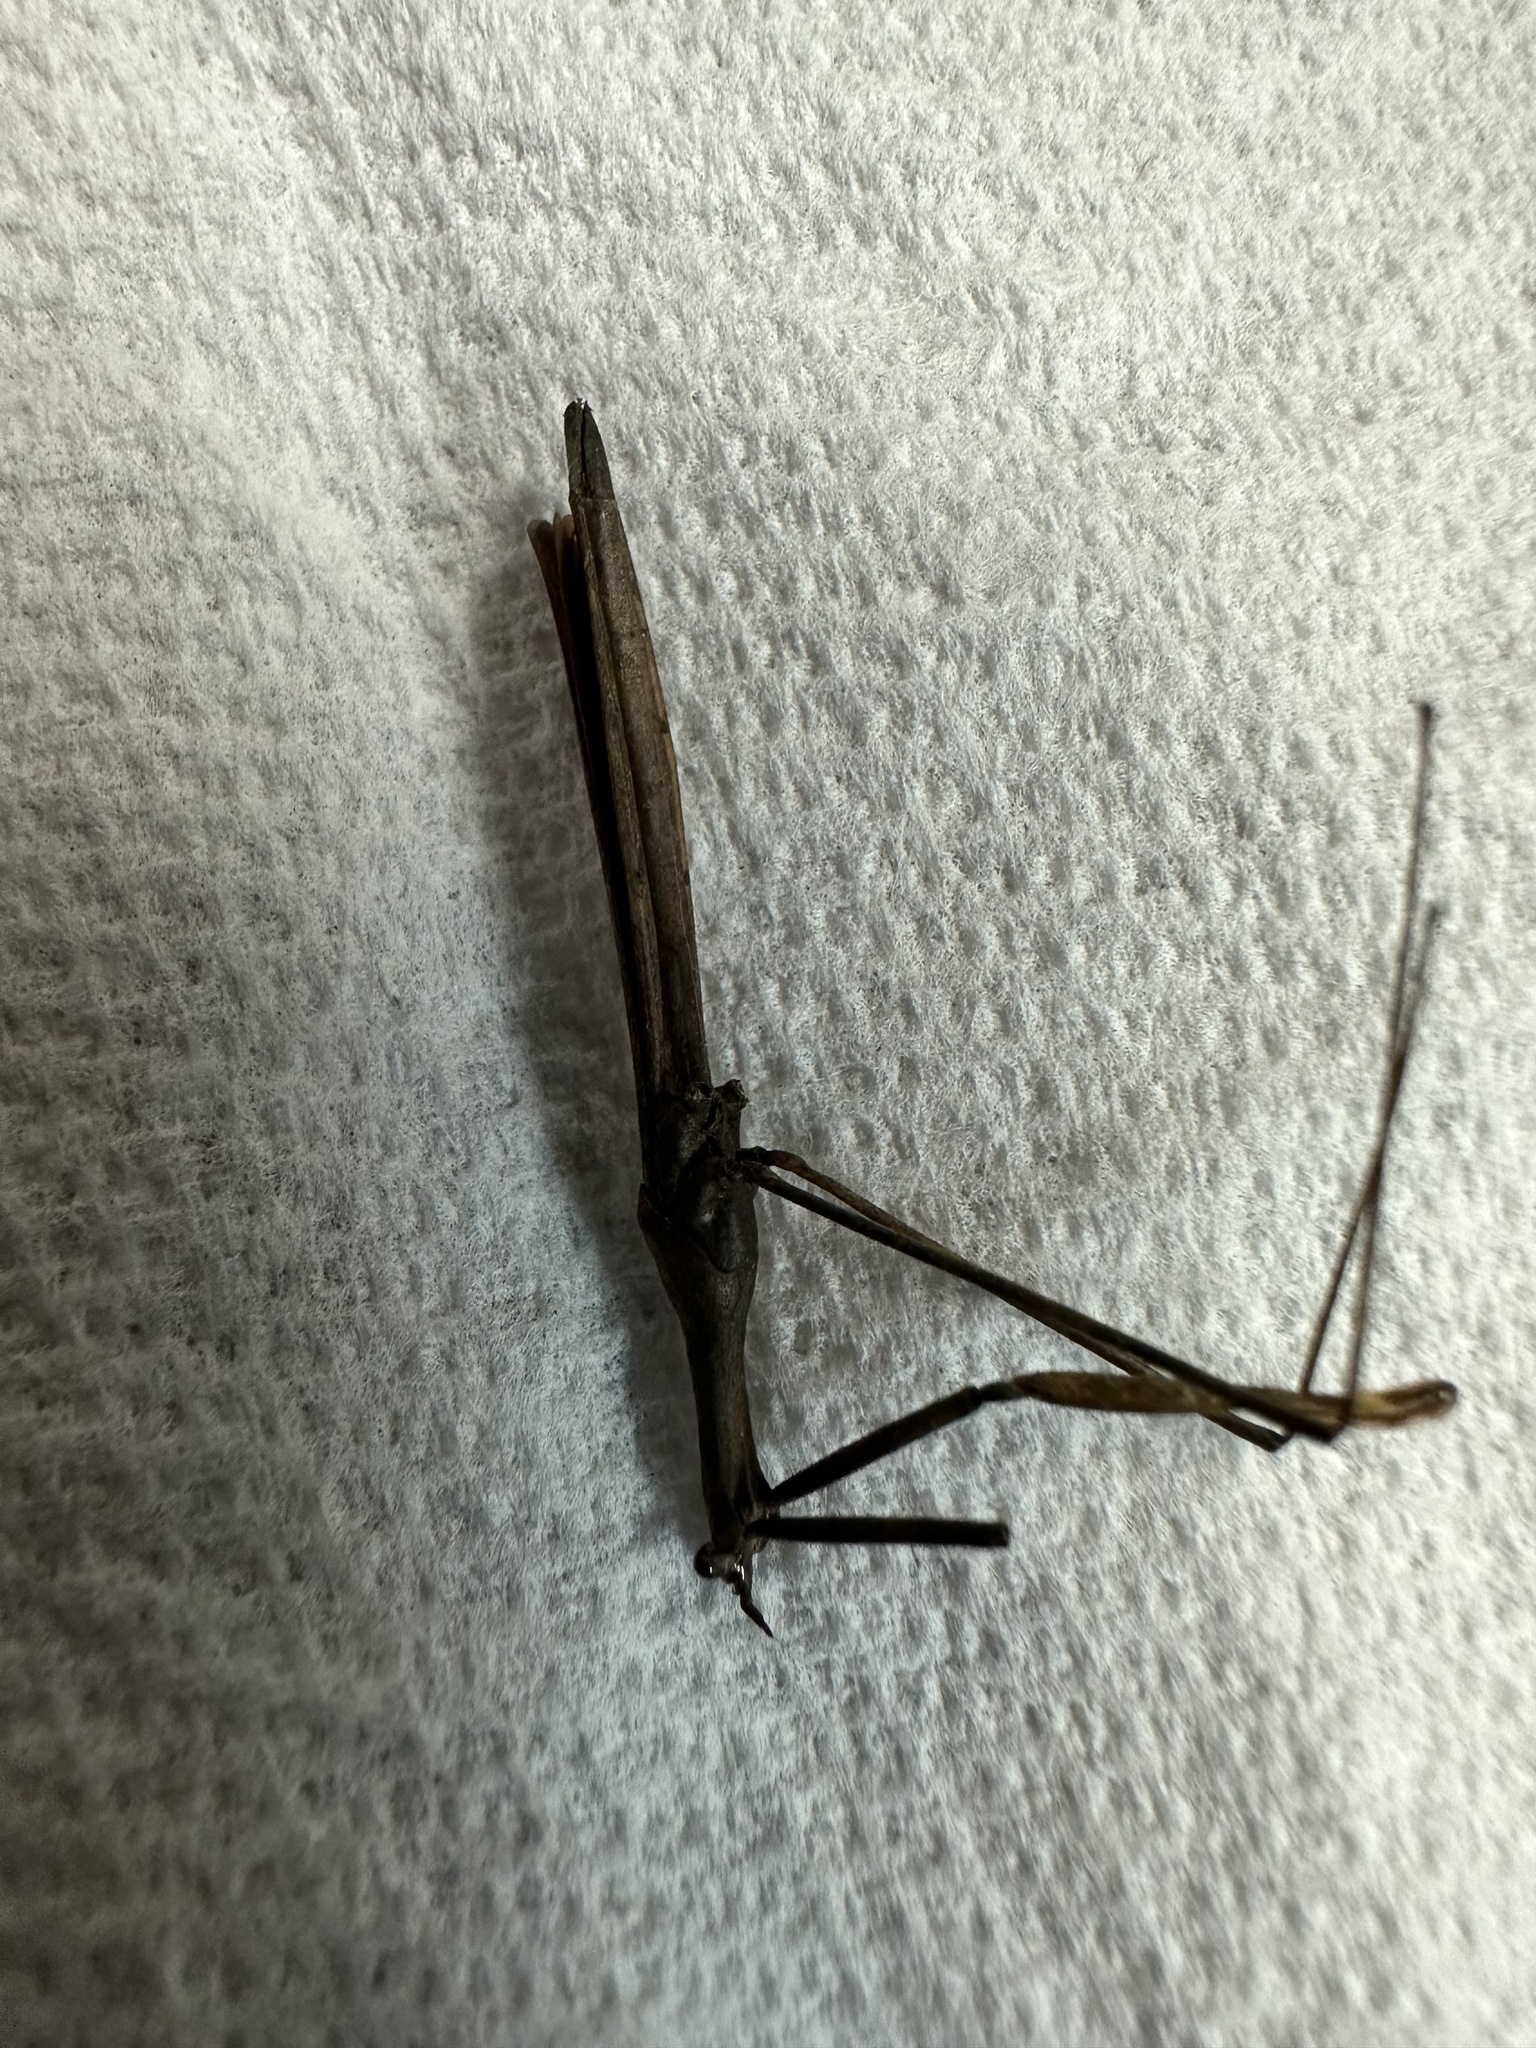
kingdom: Animalia
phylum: Arthropoda
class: Insecta
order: Hemiptera
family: Nepidae
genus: Ranatra
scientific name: Ranatra
